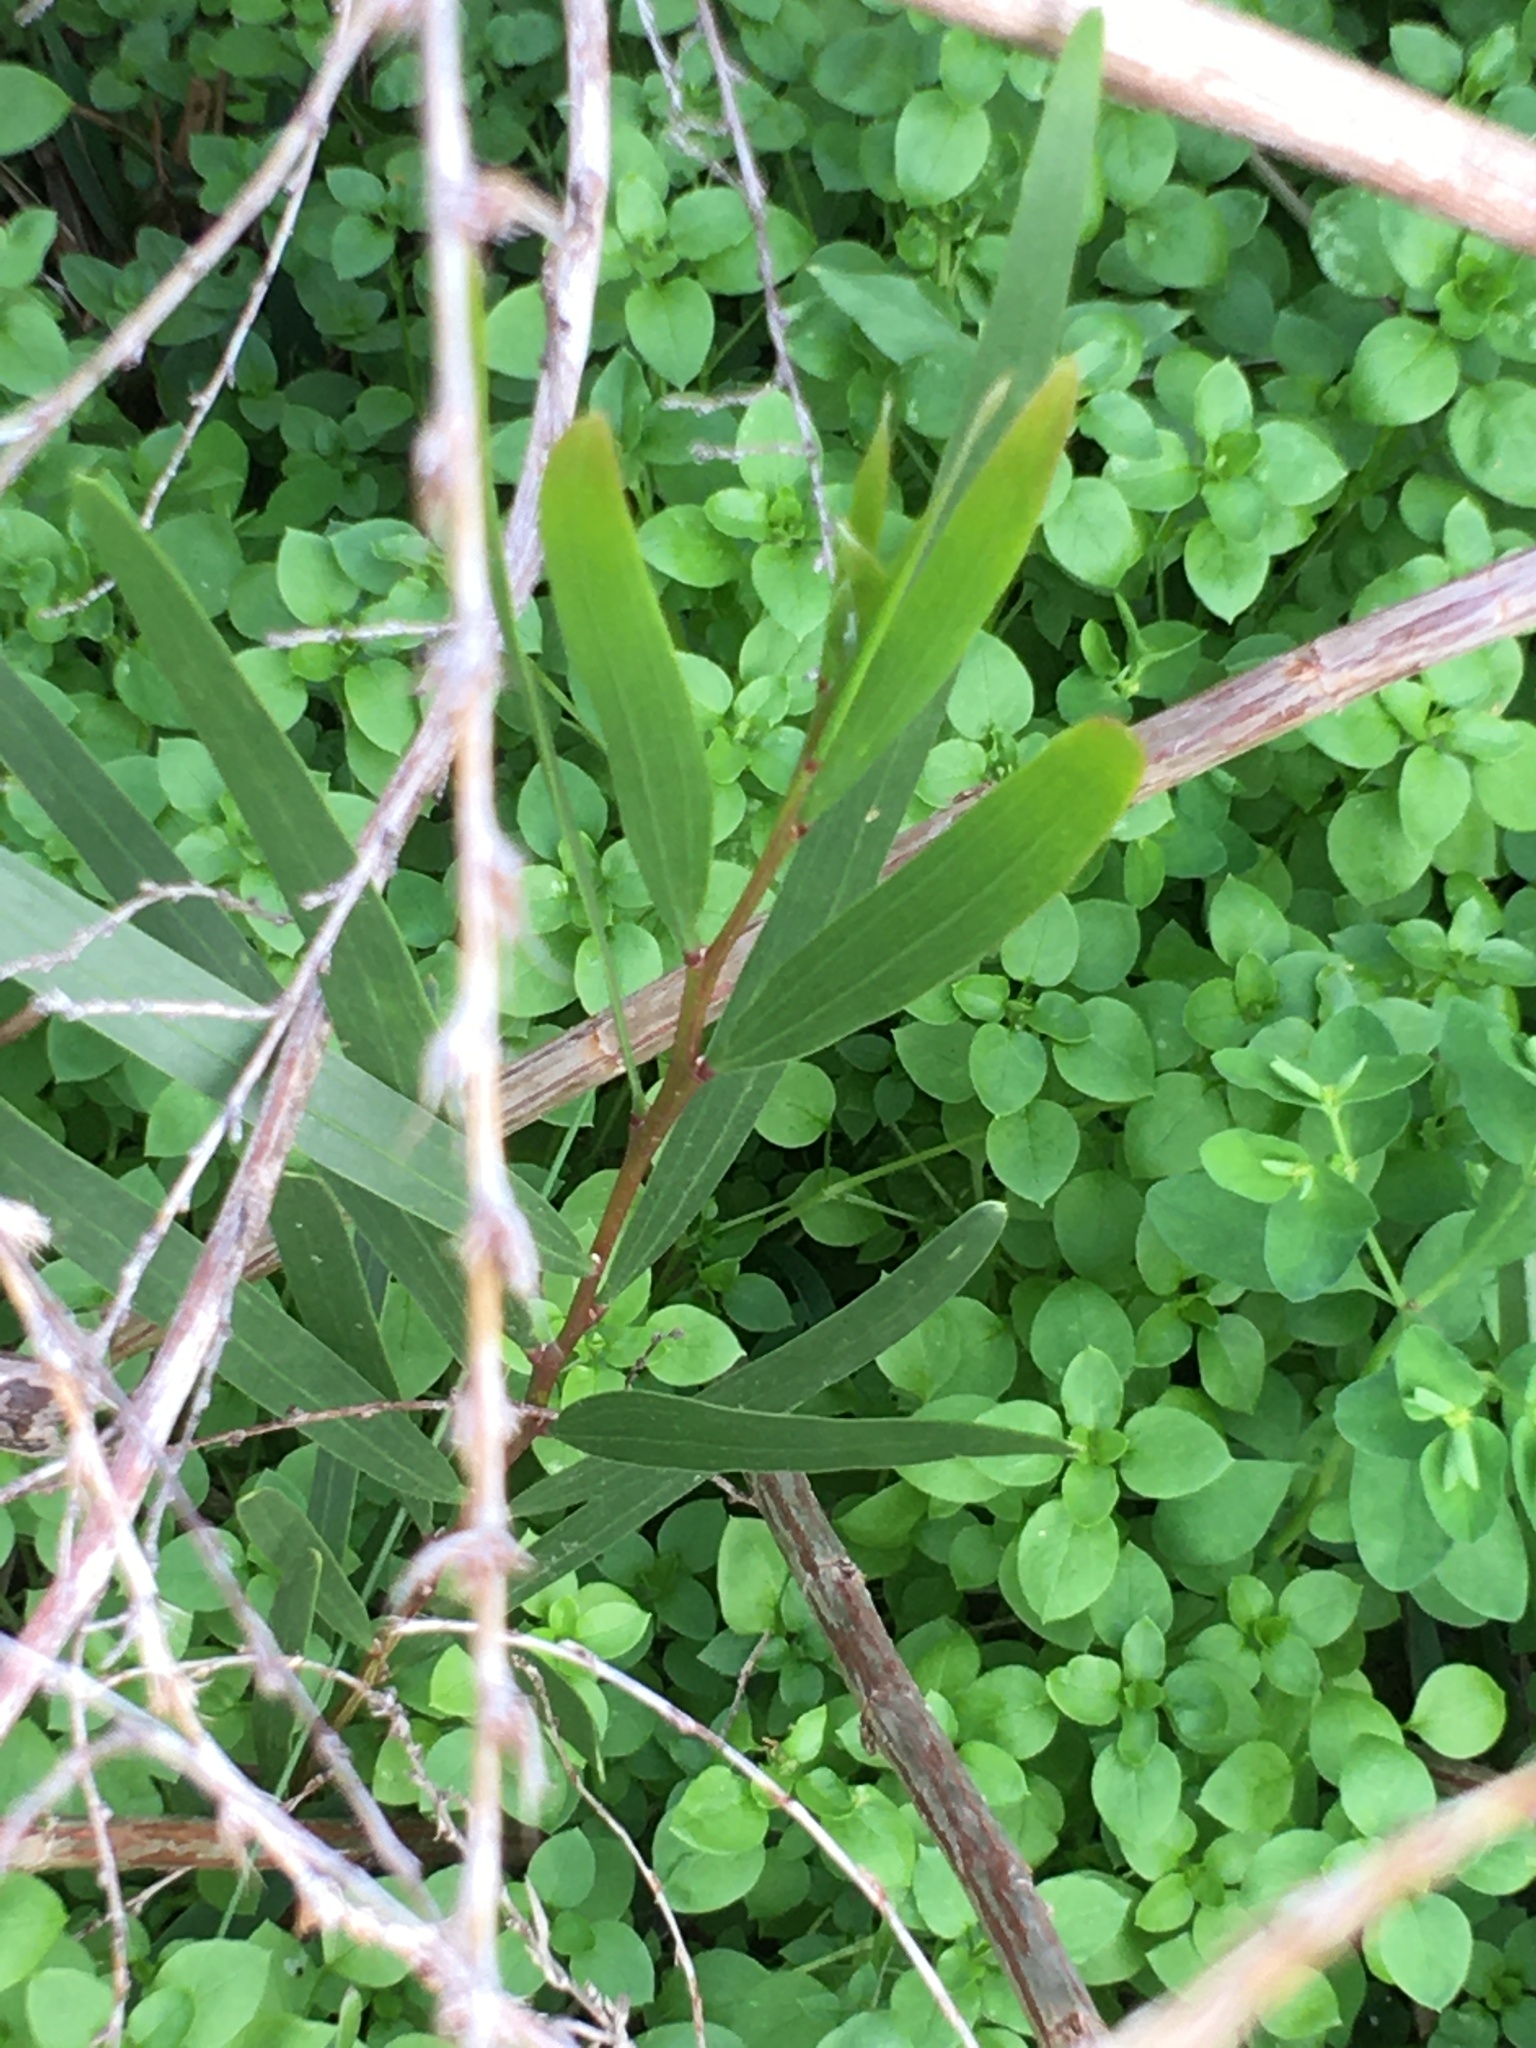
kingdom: Plantae
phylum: Tracheophyta
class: Magnoliopsida
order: Fabales
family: Fabaceae
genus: Acacia
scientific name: Acacia longifolia
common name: Sydney golden wattle
